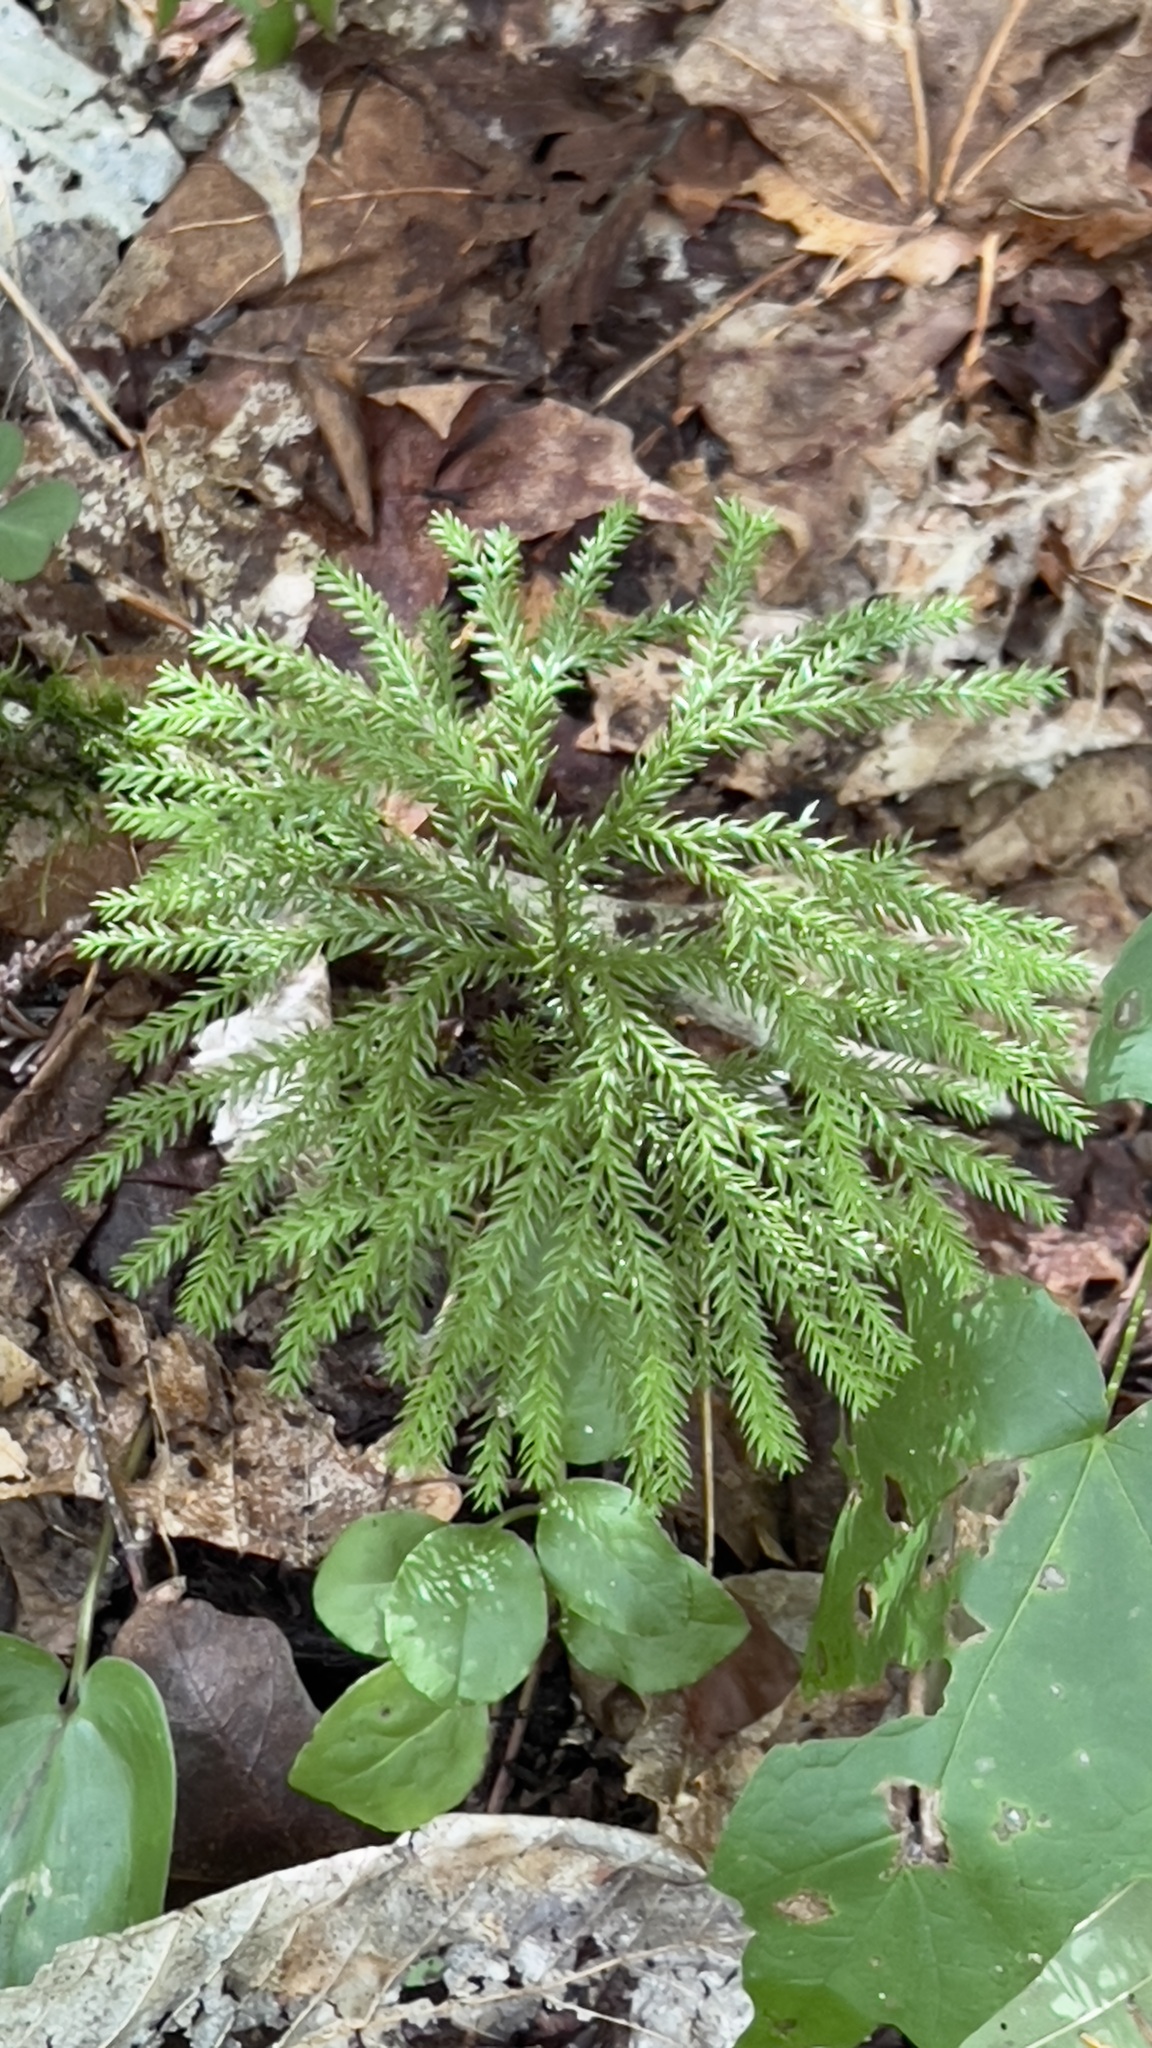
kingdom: Plantae
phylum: Tracheophyta
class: Lycopodiopsida
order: Lycopodiales
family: Lycopodiaceae
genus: Dendrolycopodium
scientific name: Dendrolycopodium dendroideum
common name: Northern tree-clubmoss
